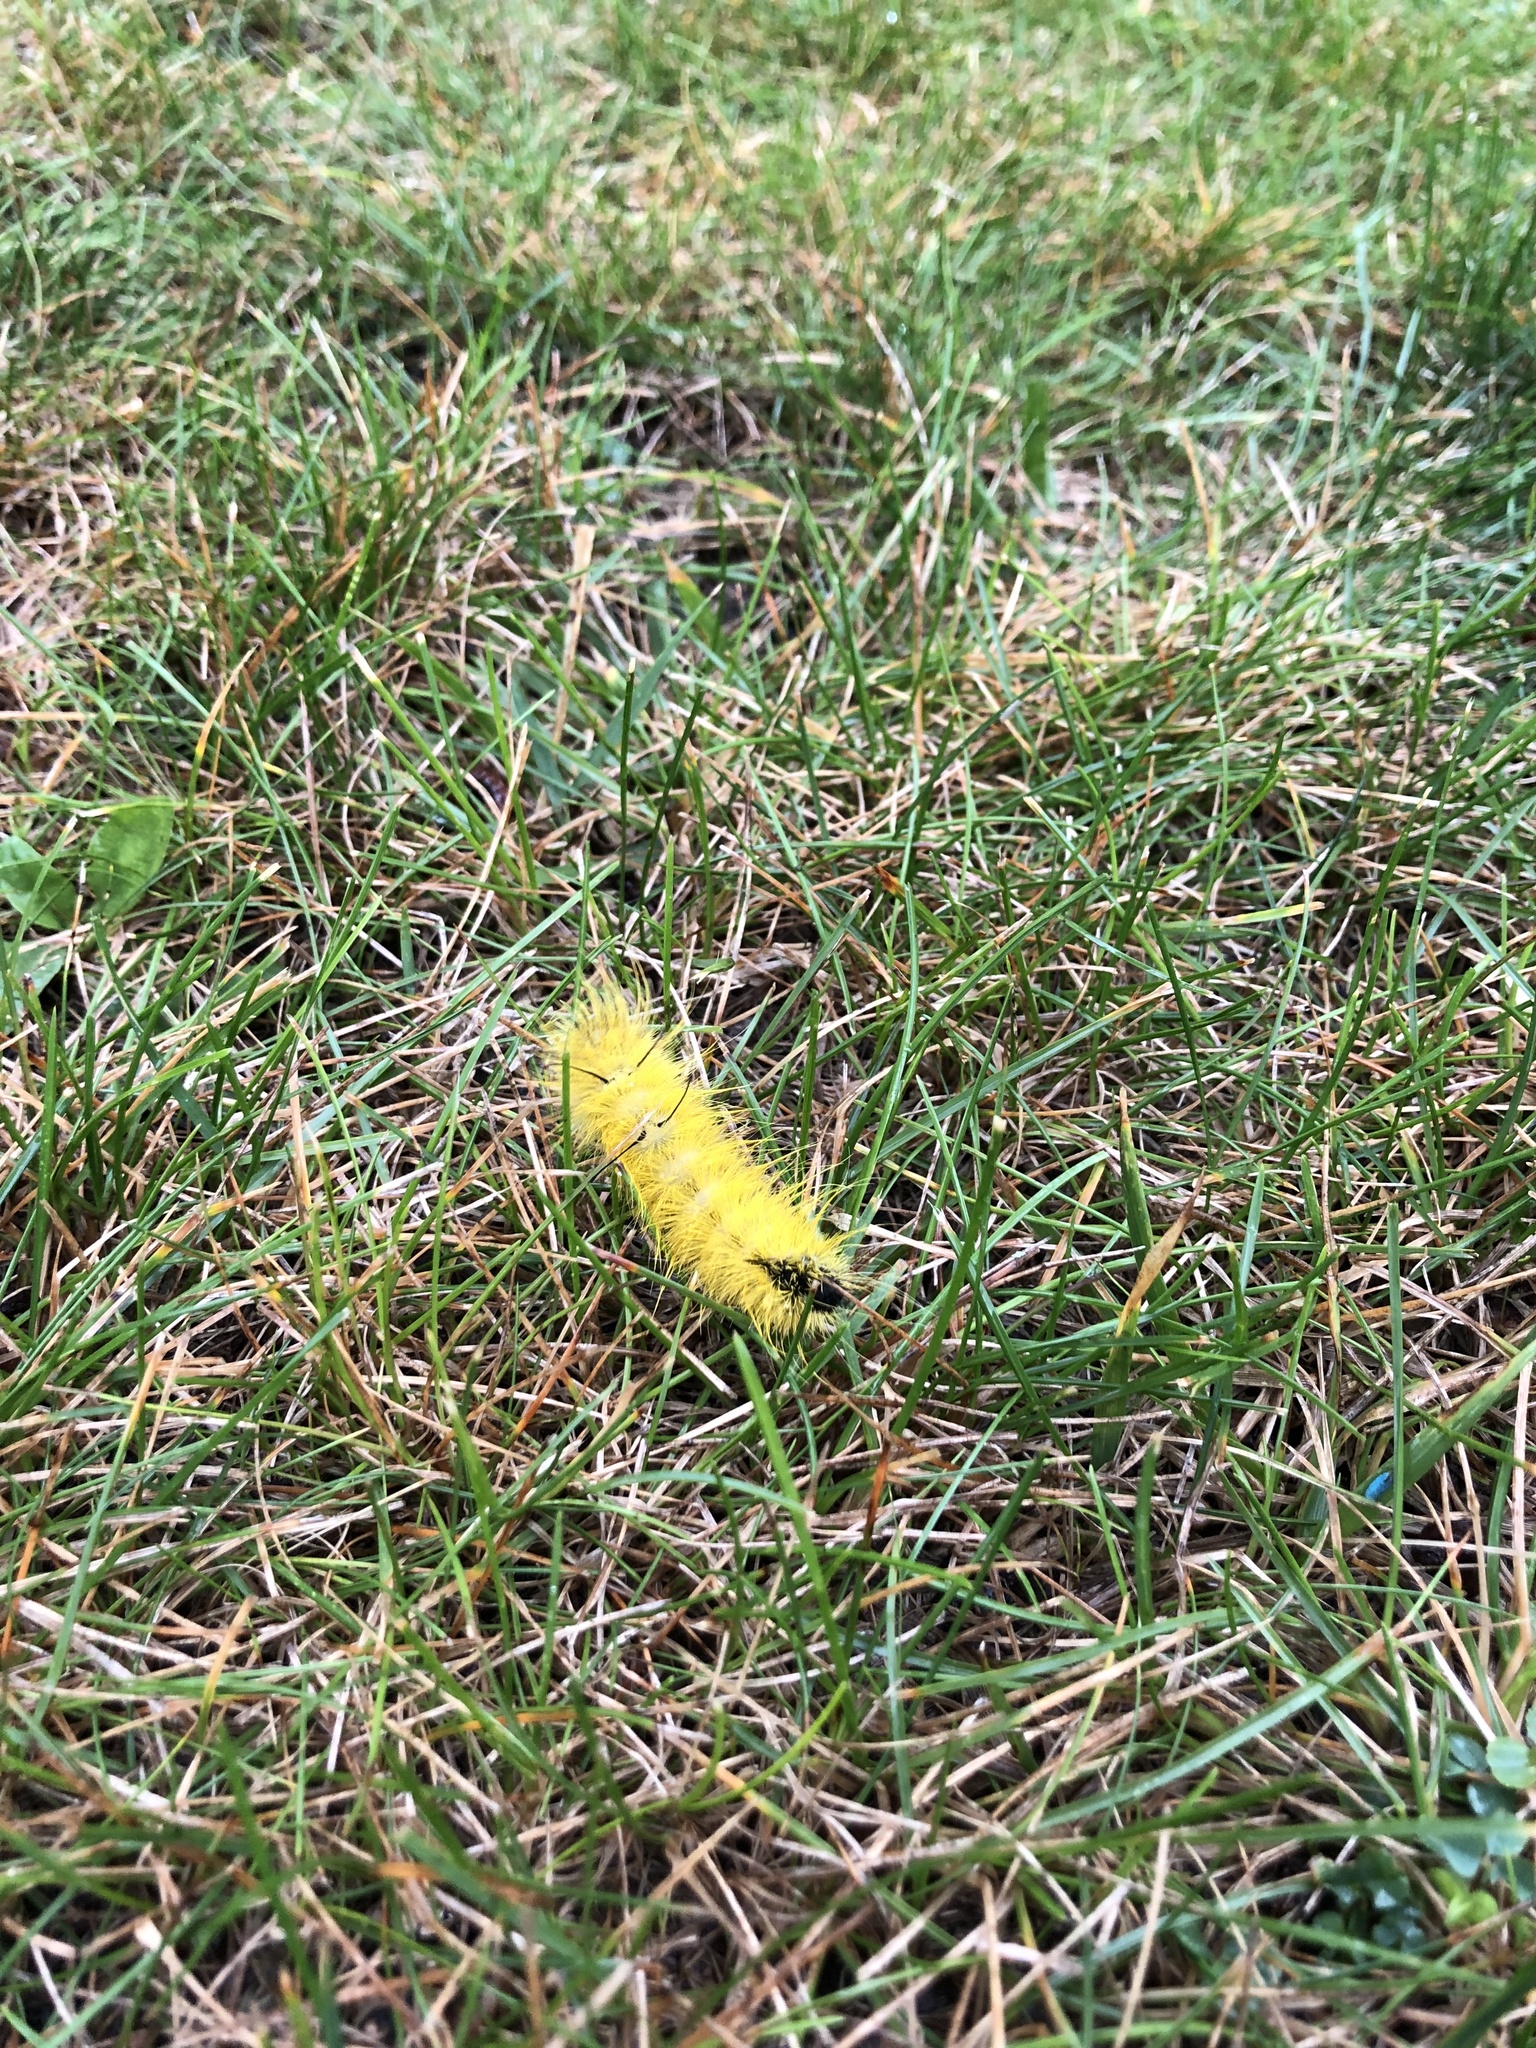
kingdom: Animalia
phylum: Arthropoda
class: Insecta
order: Lepidoptera
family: Noctuidae
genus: Acronicta
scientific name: Acronicta americana
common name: American dagger
